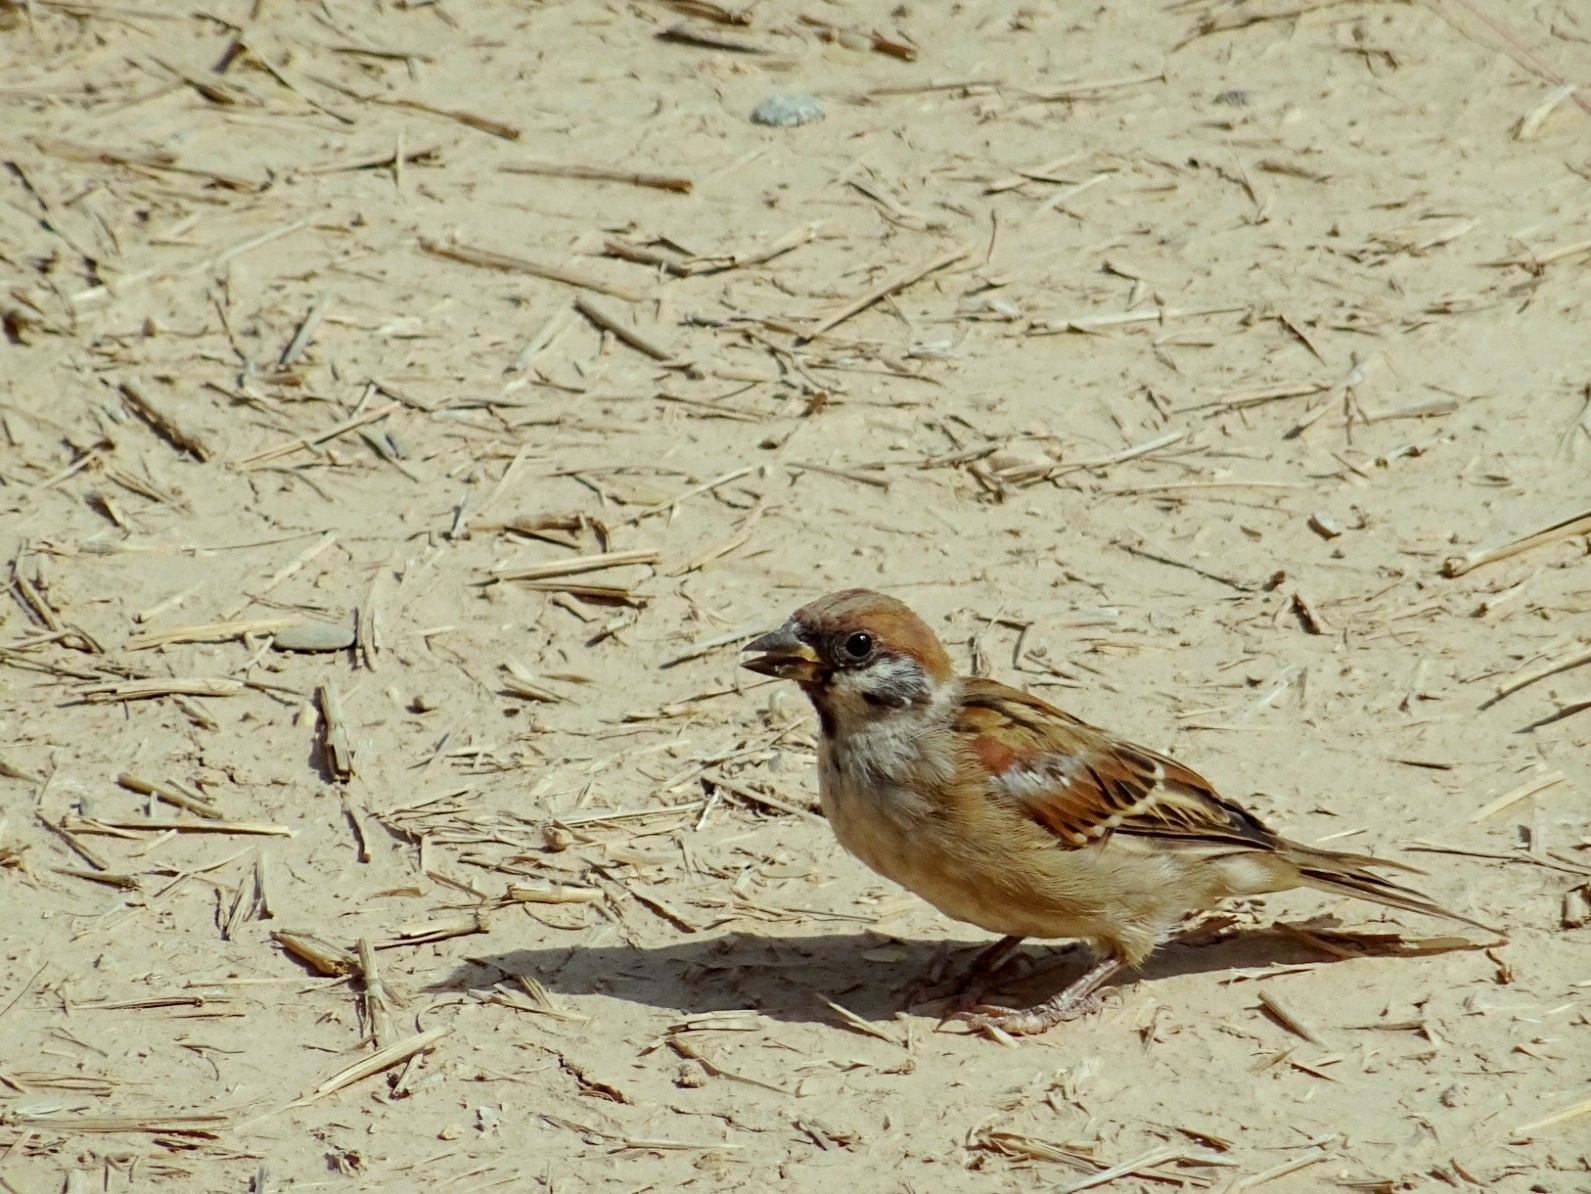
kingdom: Animalia
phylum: Chordata
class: Aves
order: Passeriformes
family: Passeridae
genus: Passer
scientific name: Passer montanus
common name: Eurasian tree sparrow
